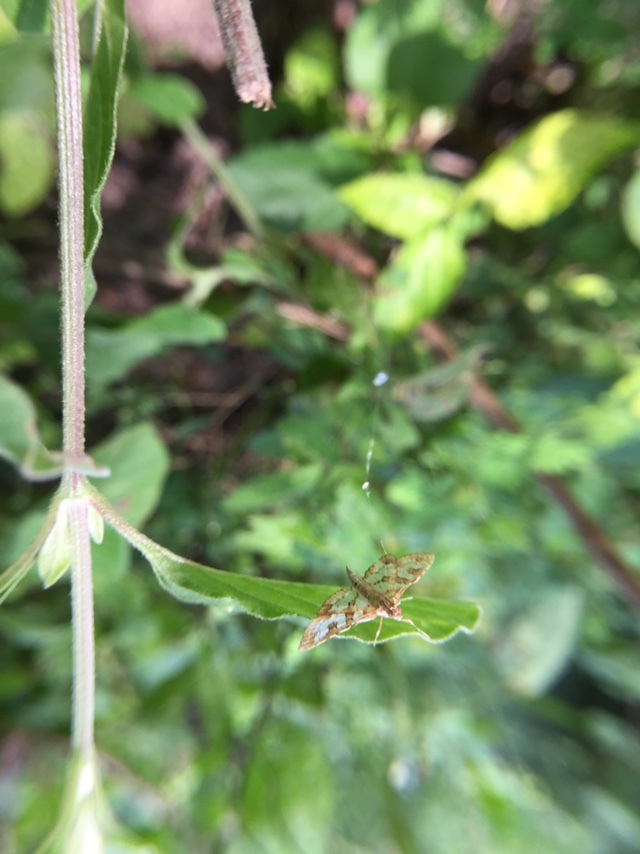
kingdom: Animalia
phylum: Arthropoda
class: Insecta
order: Lepidoptera
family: Crambidae
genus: Sameodes
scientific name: Sameodes cancellalis
